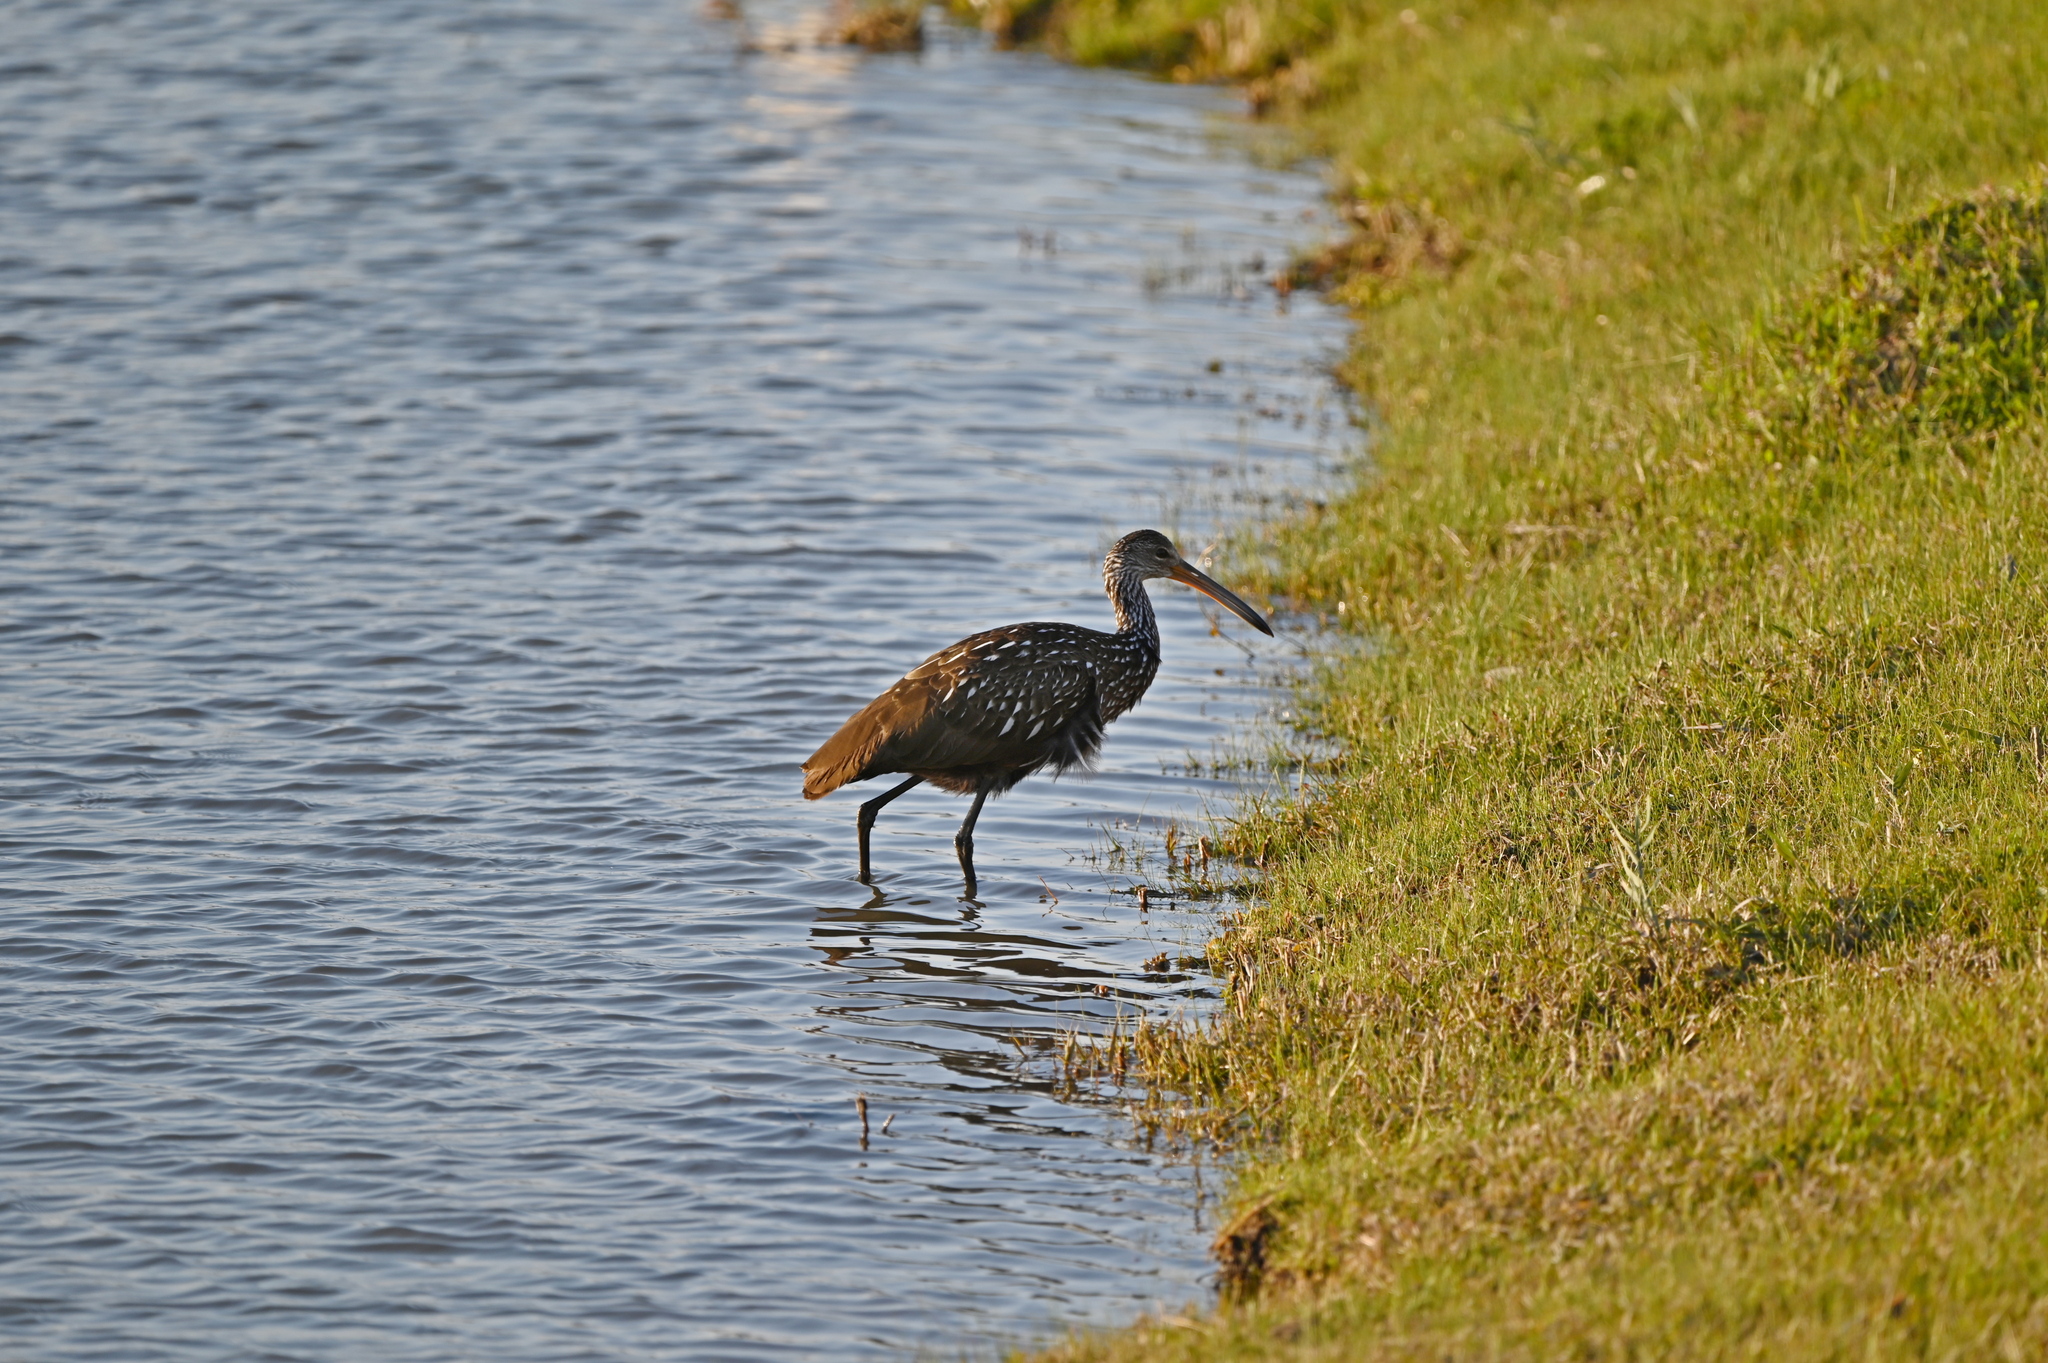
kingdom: Animalia
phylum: Chordata
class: Aves
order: Gruiformes
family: Aramidae
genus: Aramus
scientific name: Aramus guarauna
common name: Limpkin
